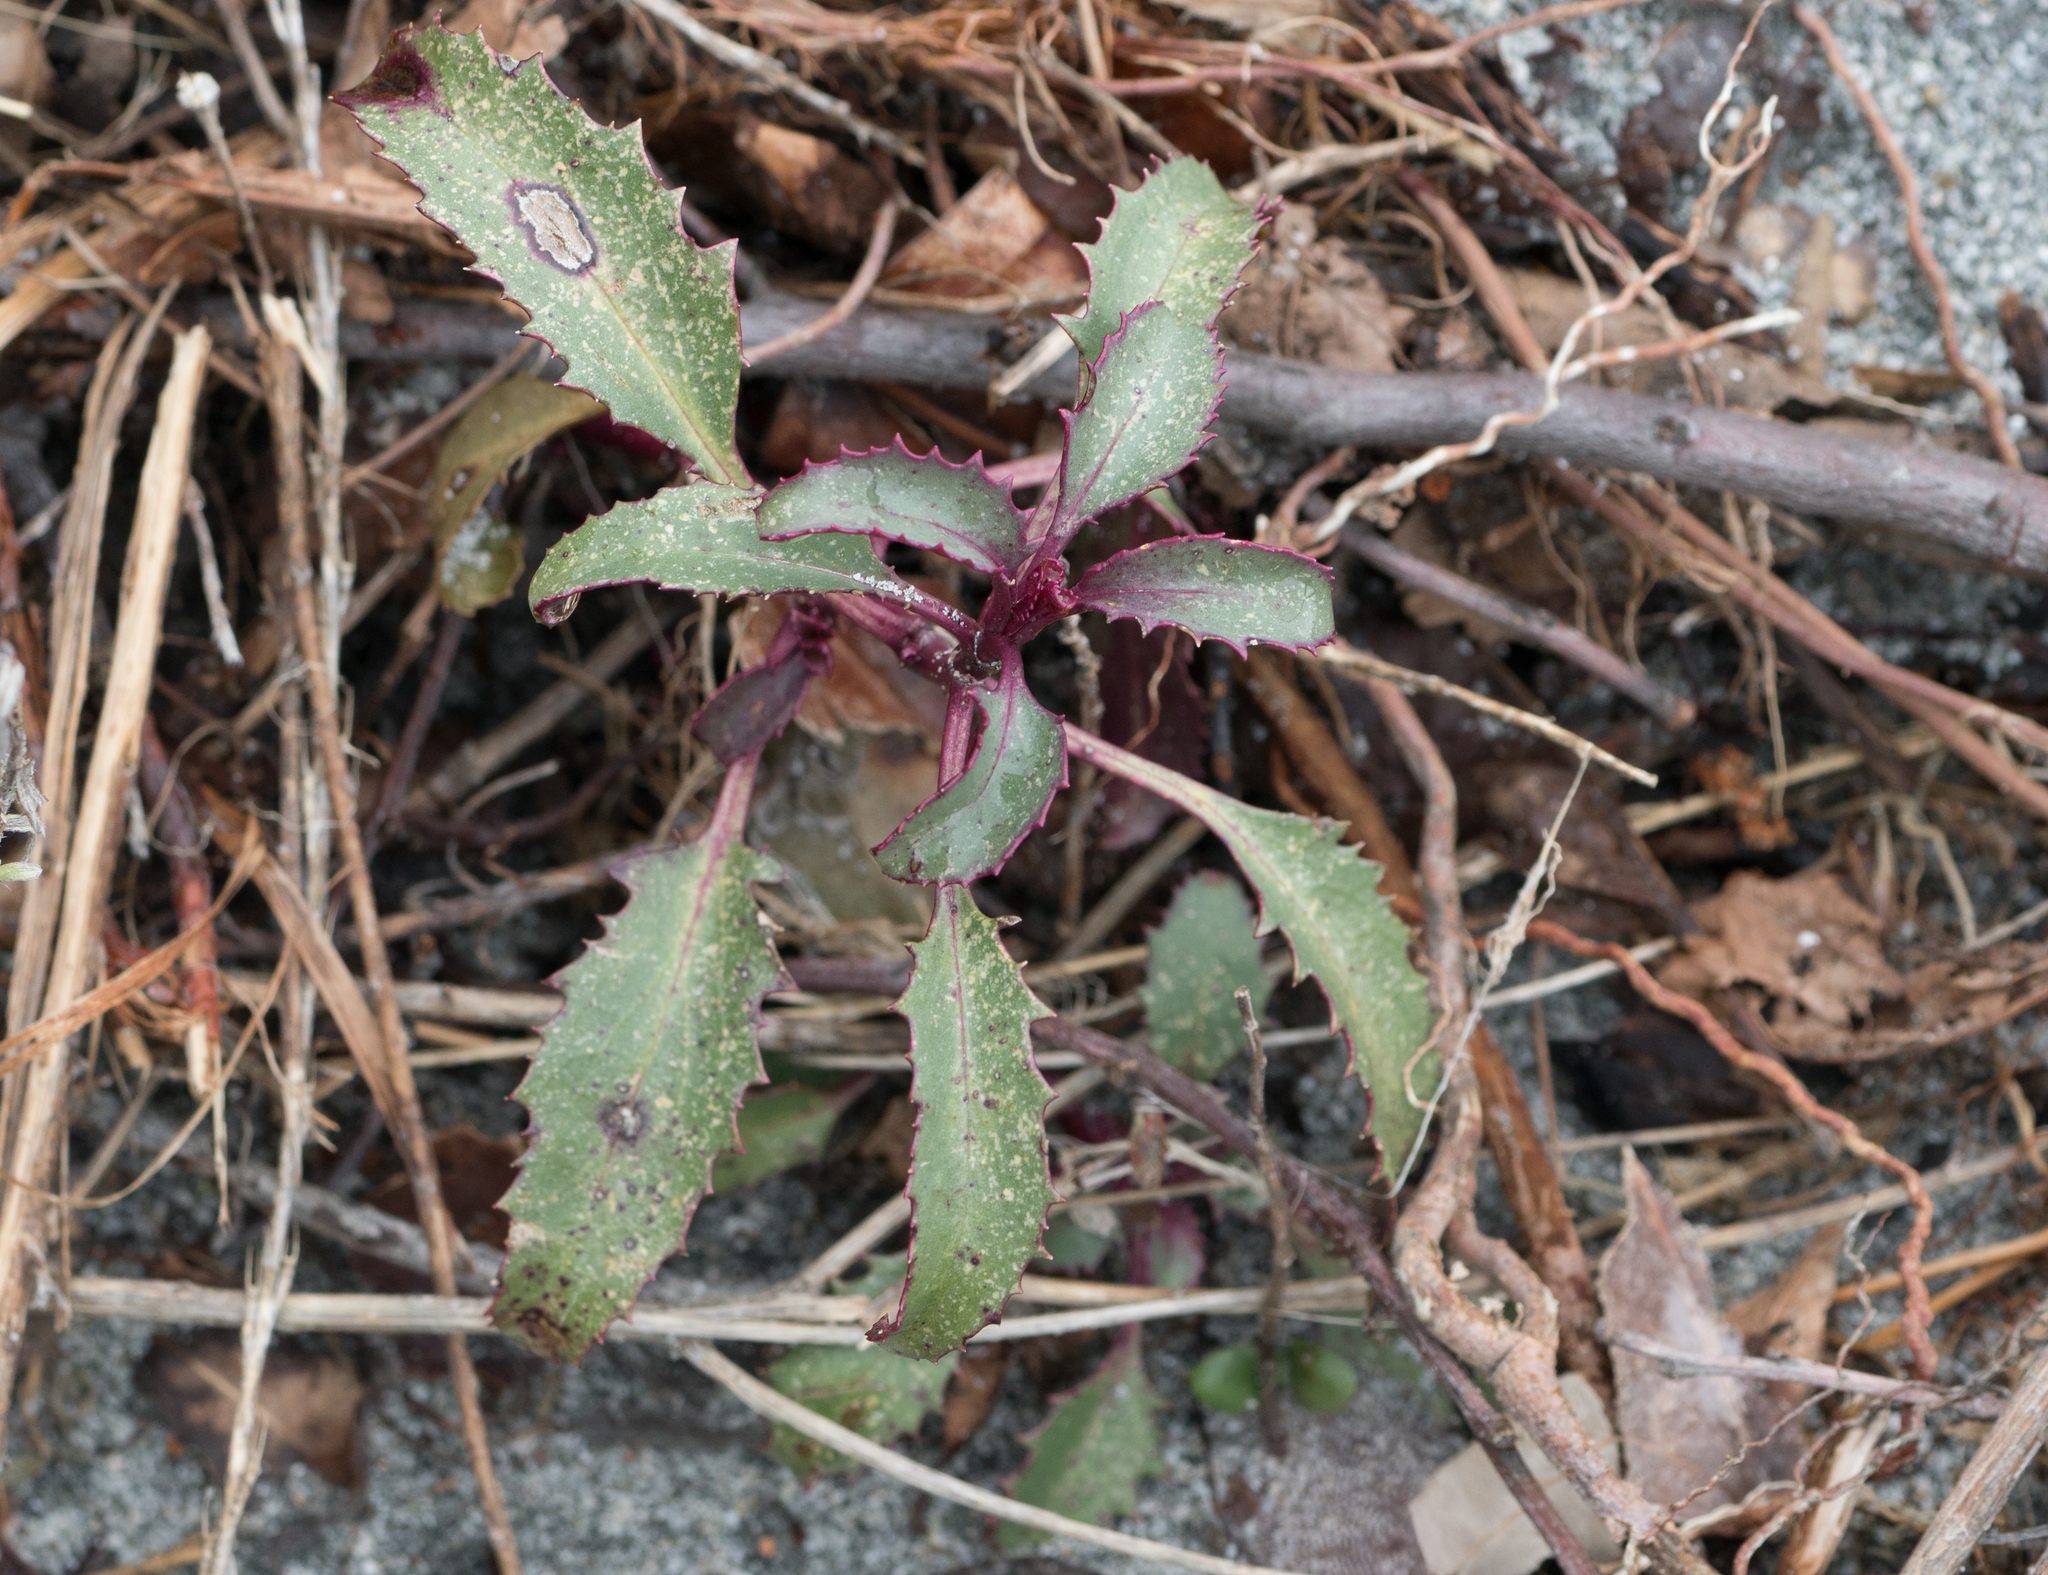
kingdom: Plantae
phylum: Tracheophyta
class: Magnoliopsida
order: Lamiales
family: Plantaginaceae
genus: Penstemon
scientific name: Penstemon grinnellii
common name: Grinnell's beardtongue
